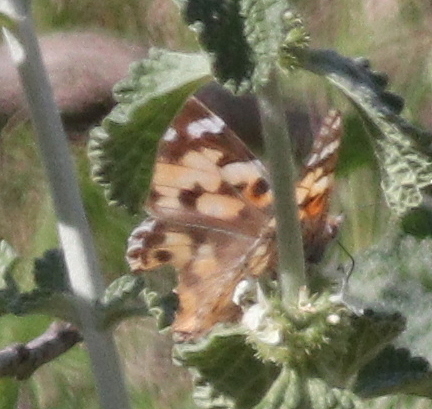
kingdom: Animalia
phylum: Arthropoda
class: Insecta
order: Lepidoptera
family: Nymphalidae
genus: Vanessa
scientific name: Vanessa cardui
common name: Painted lady
